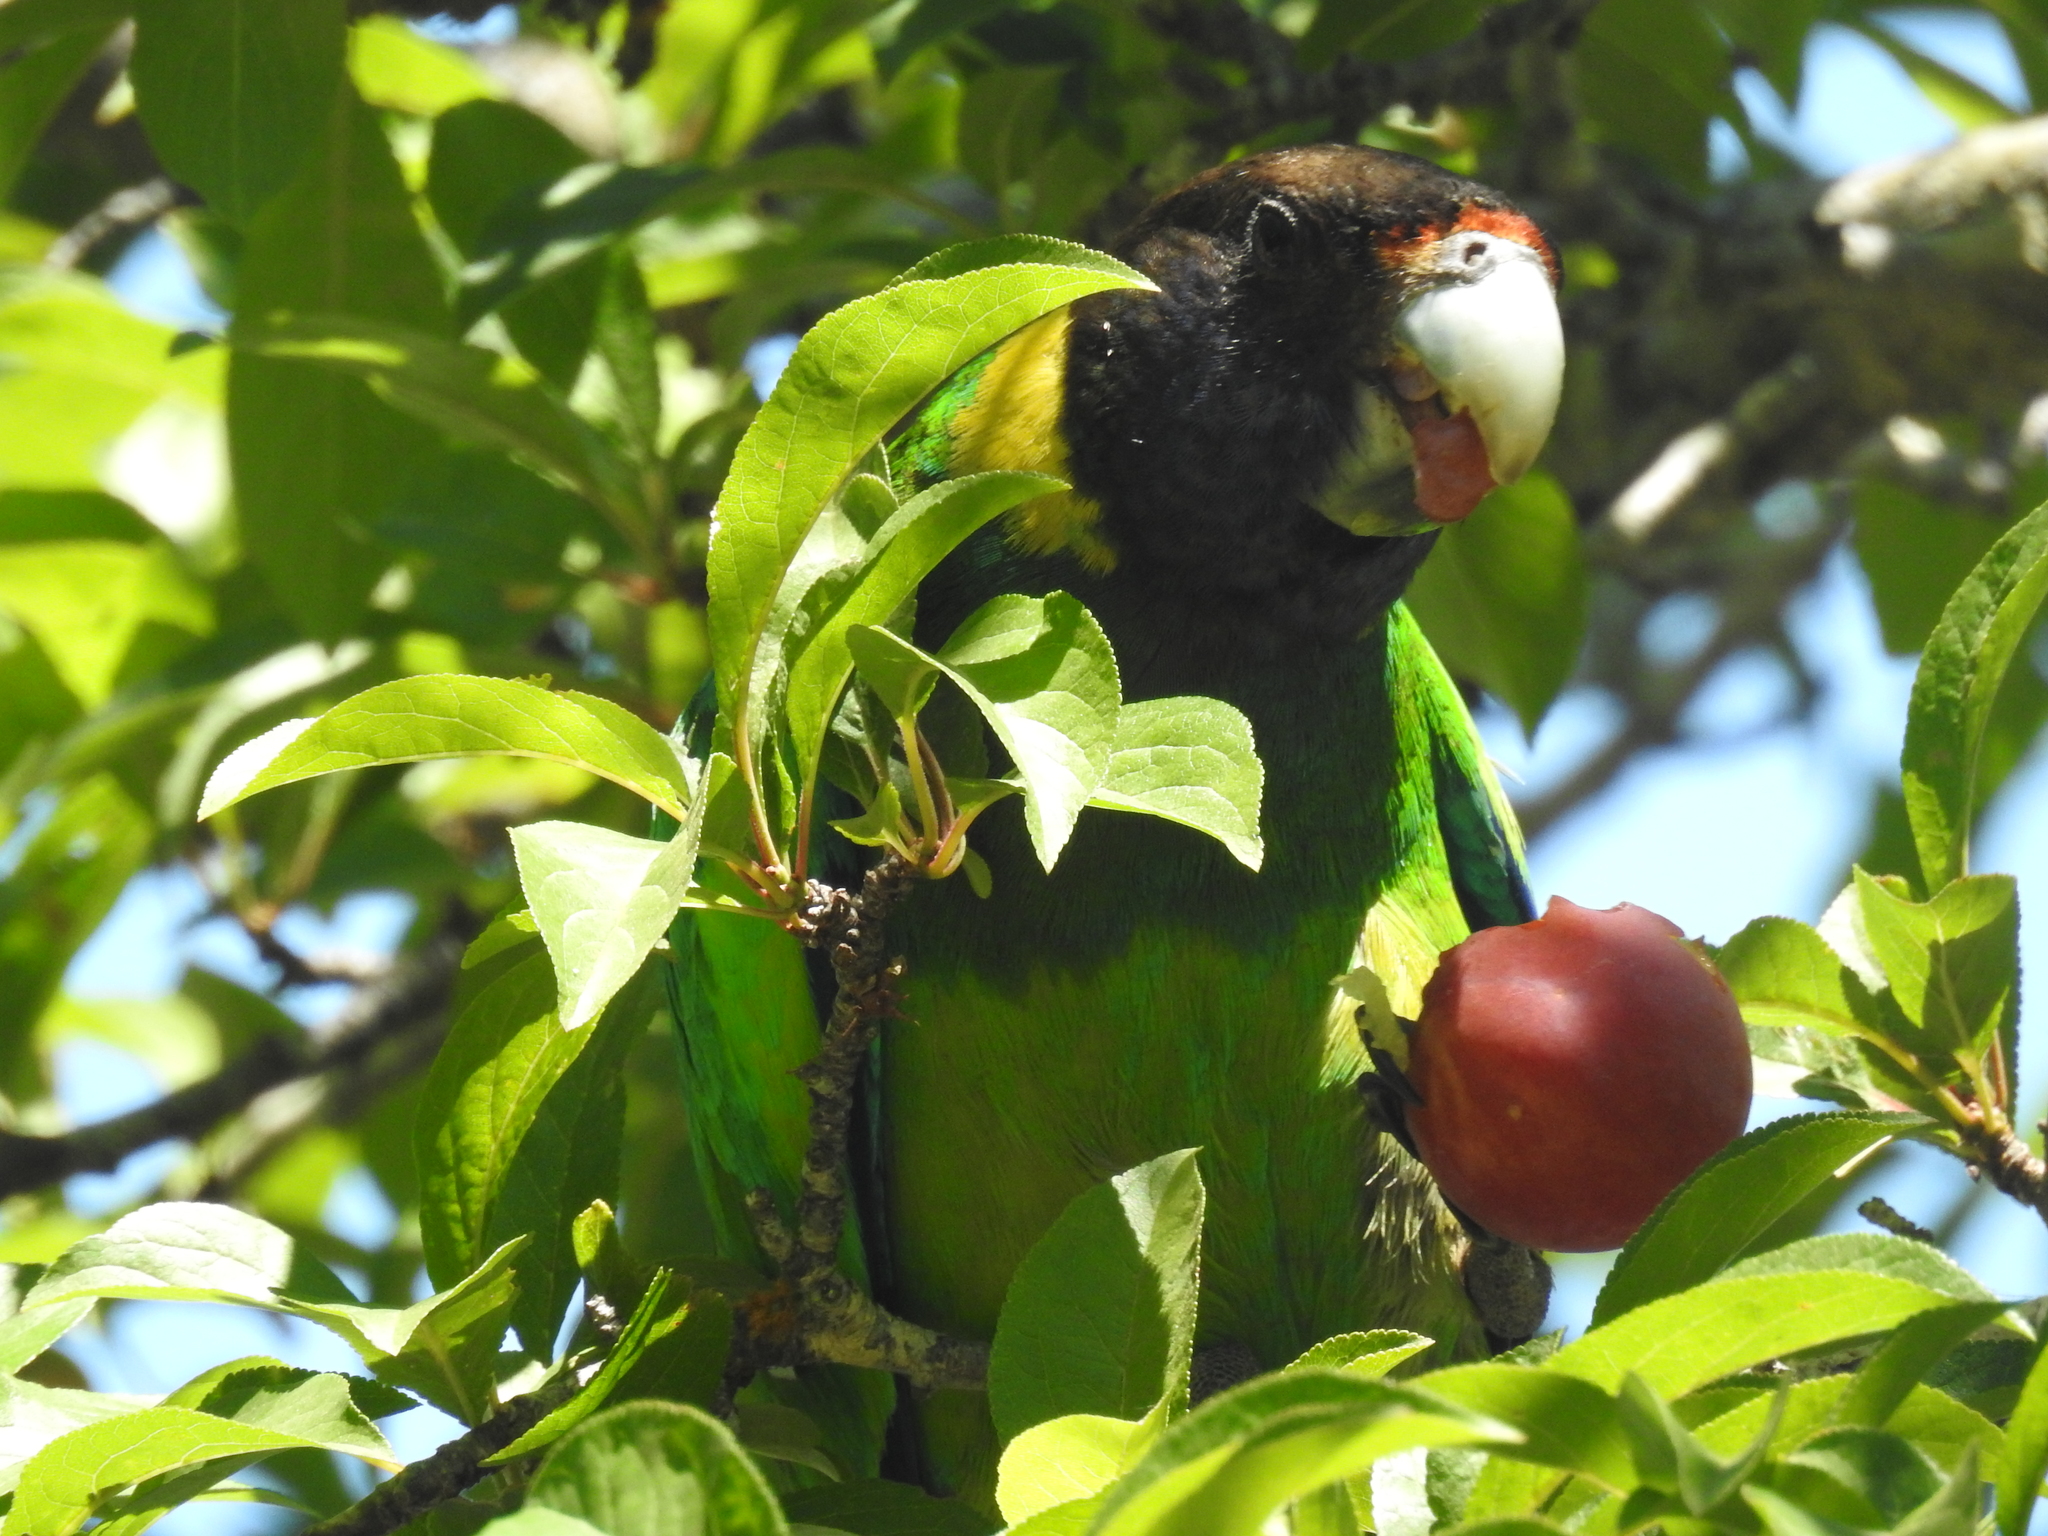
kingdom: Animalia
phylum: Chordata
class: Aves
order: Psittaciformes
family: Psittacidae
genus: Barnardius
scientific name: Barnardius zonarius
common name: Australian ringneck
